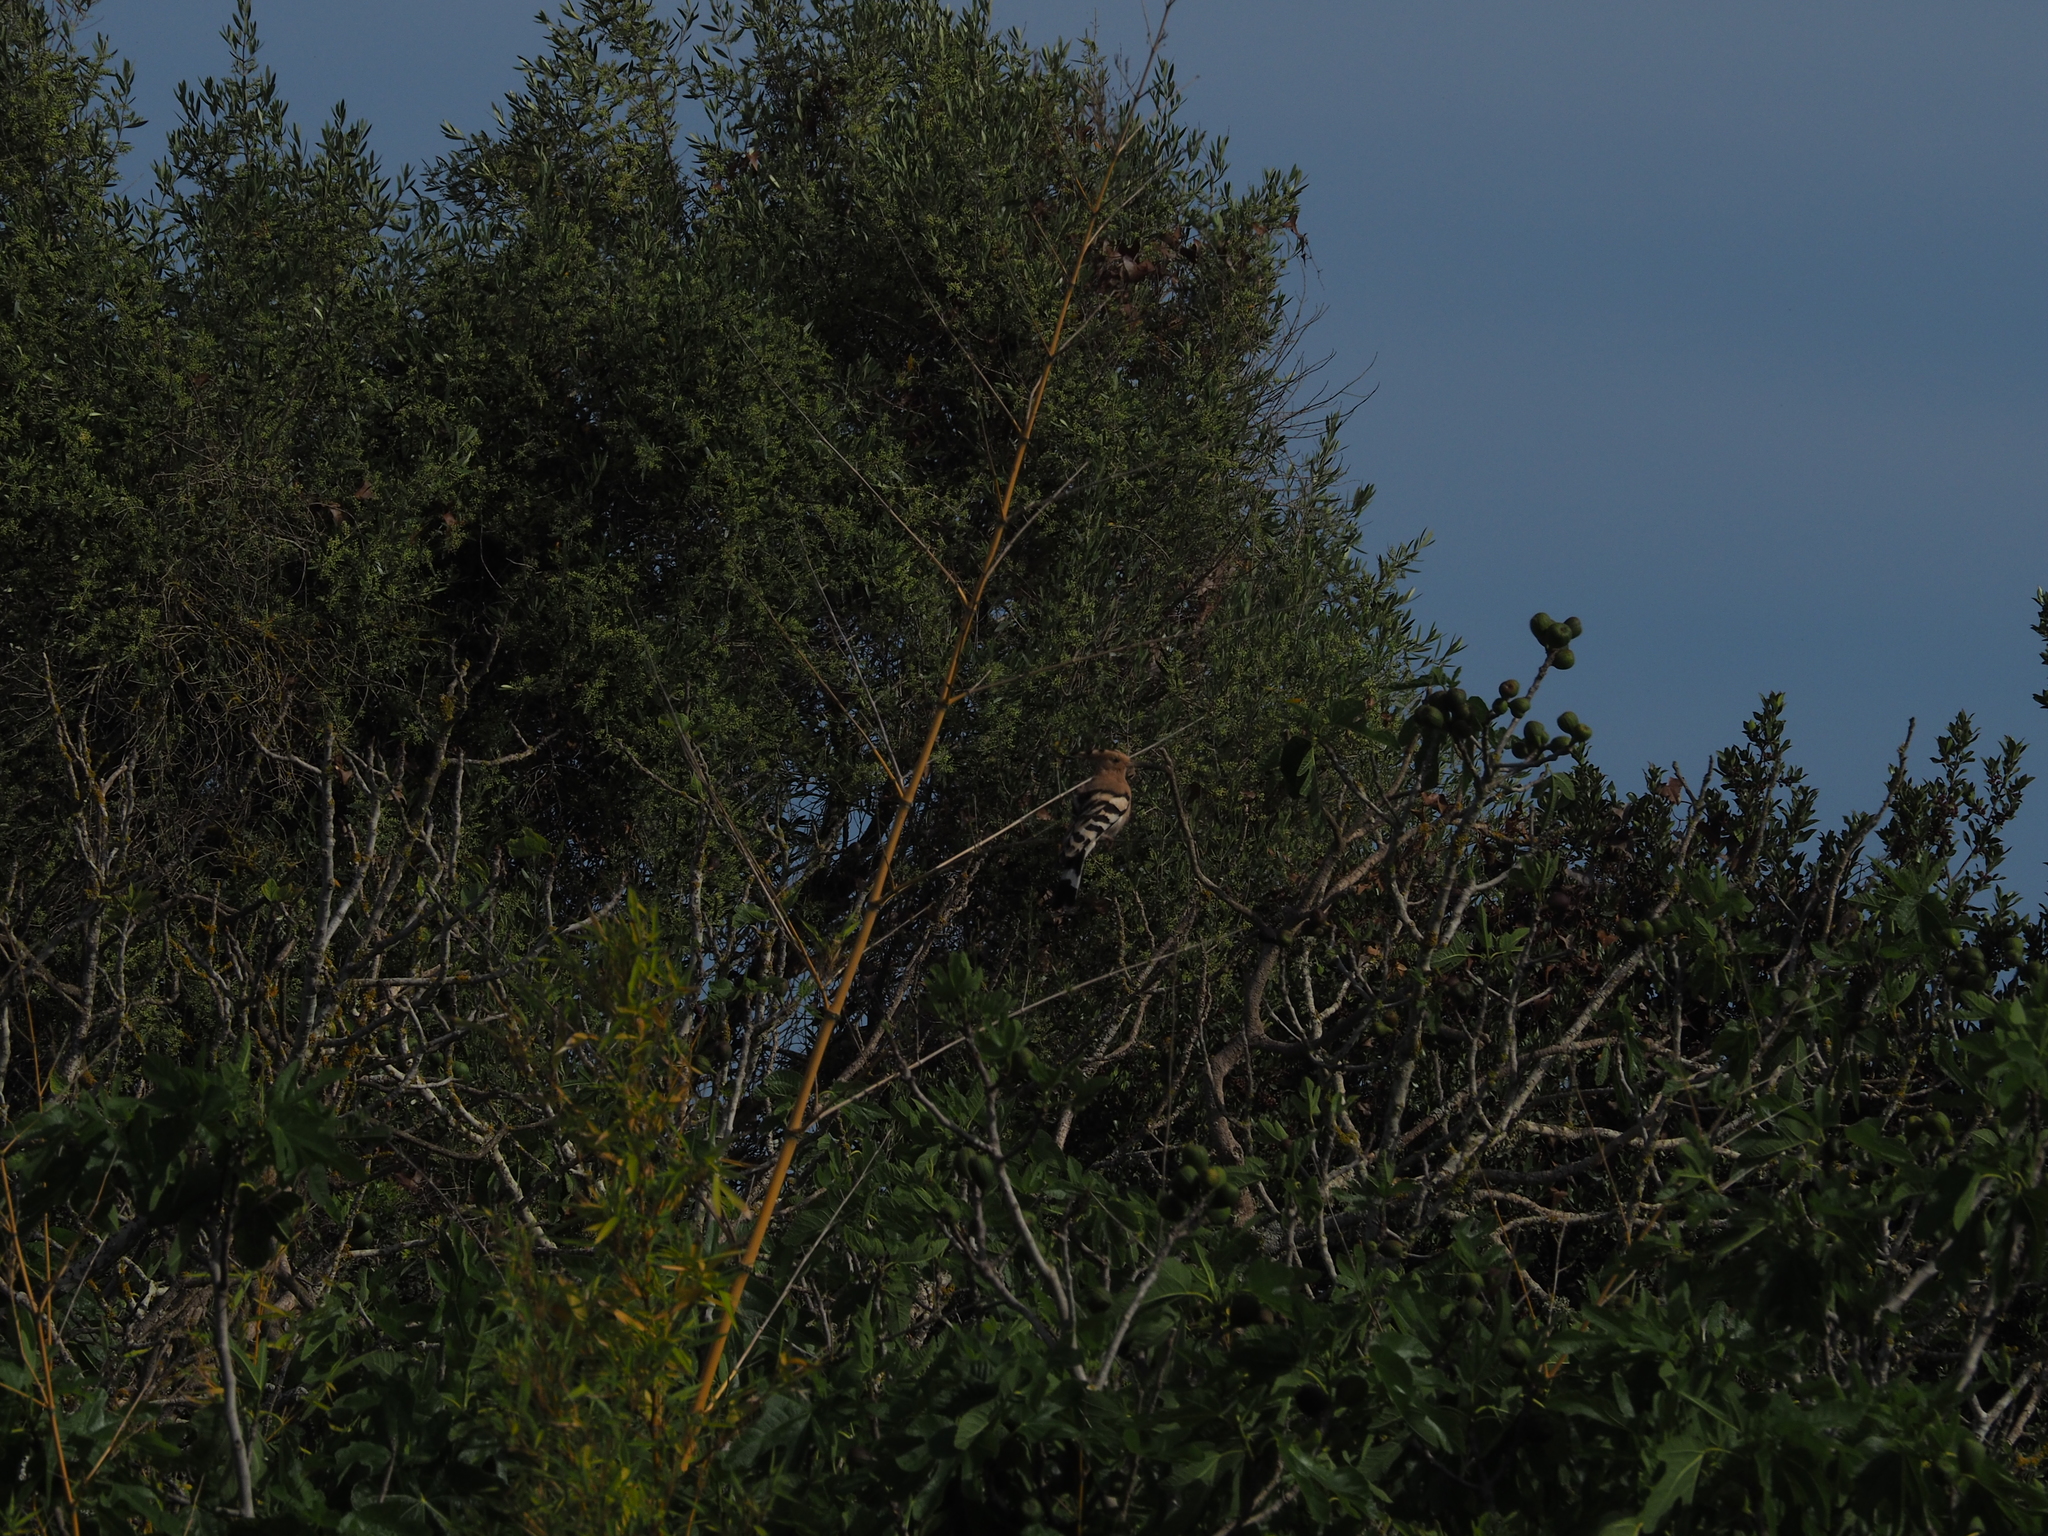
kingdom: Animalia
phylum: Chordata
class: Aves
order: Bucerotiformes
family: Upupidae
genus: Upupa
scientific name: Upupa epops
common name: Eurasian hoopoe
